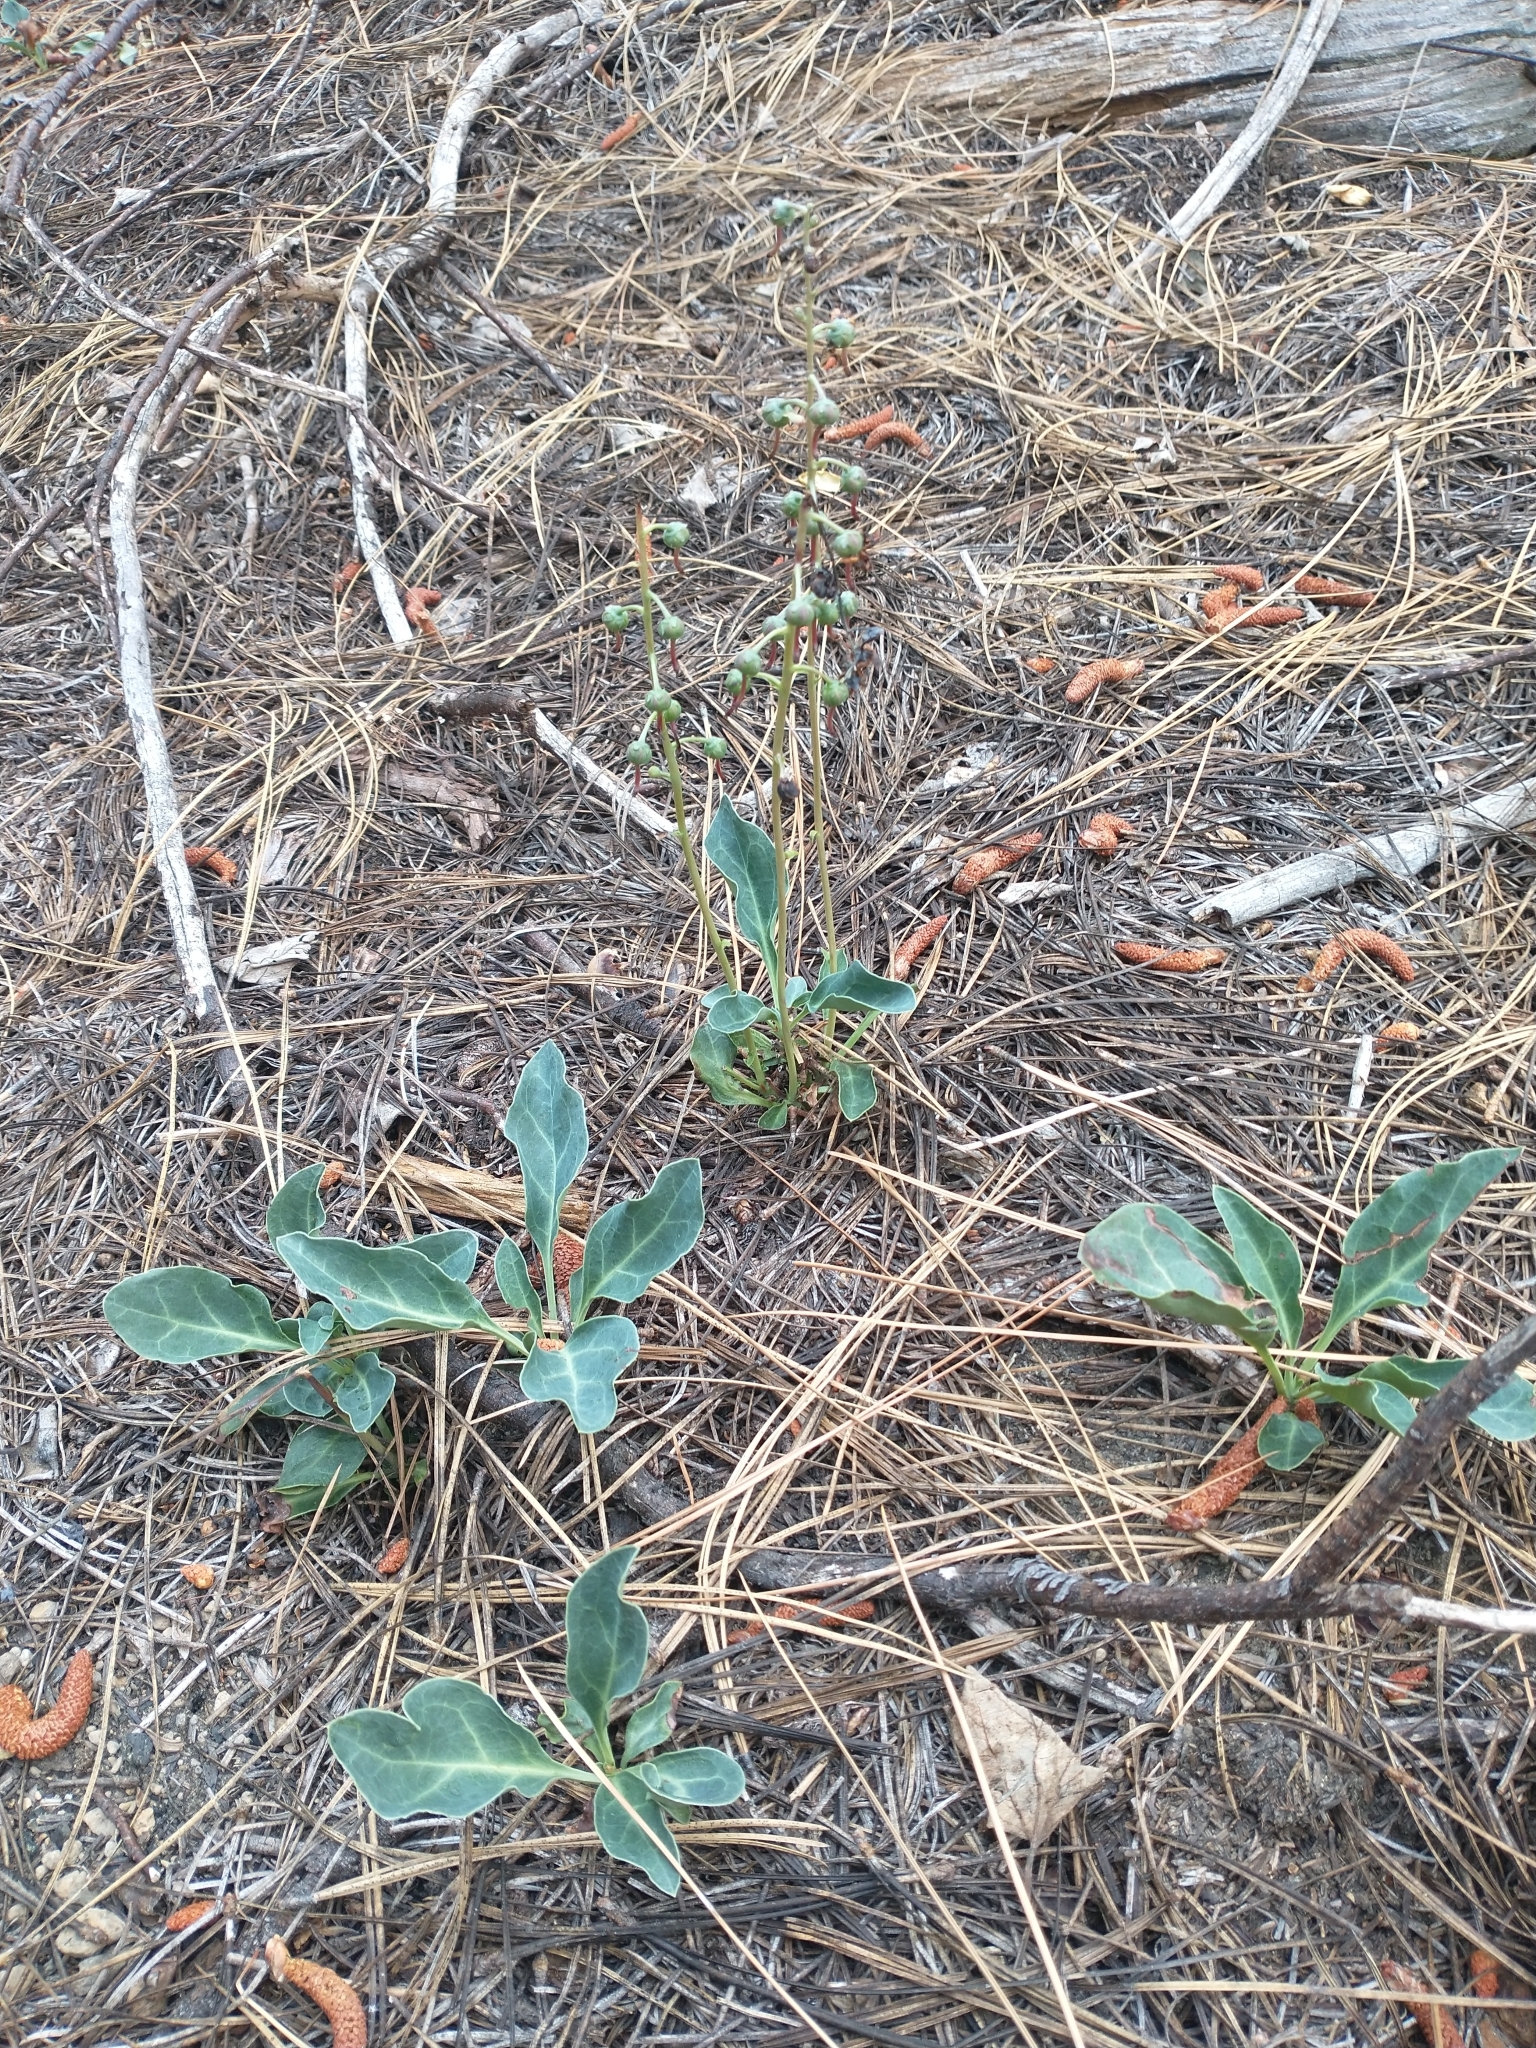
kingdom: Plantae
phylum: Tracheophyta
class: Magnoliopsida
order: Ericales
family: Ericaceae
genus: Pyrola
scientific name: Pyrola dentata
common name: Tooth-leaved wintergreen
